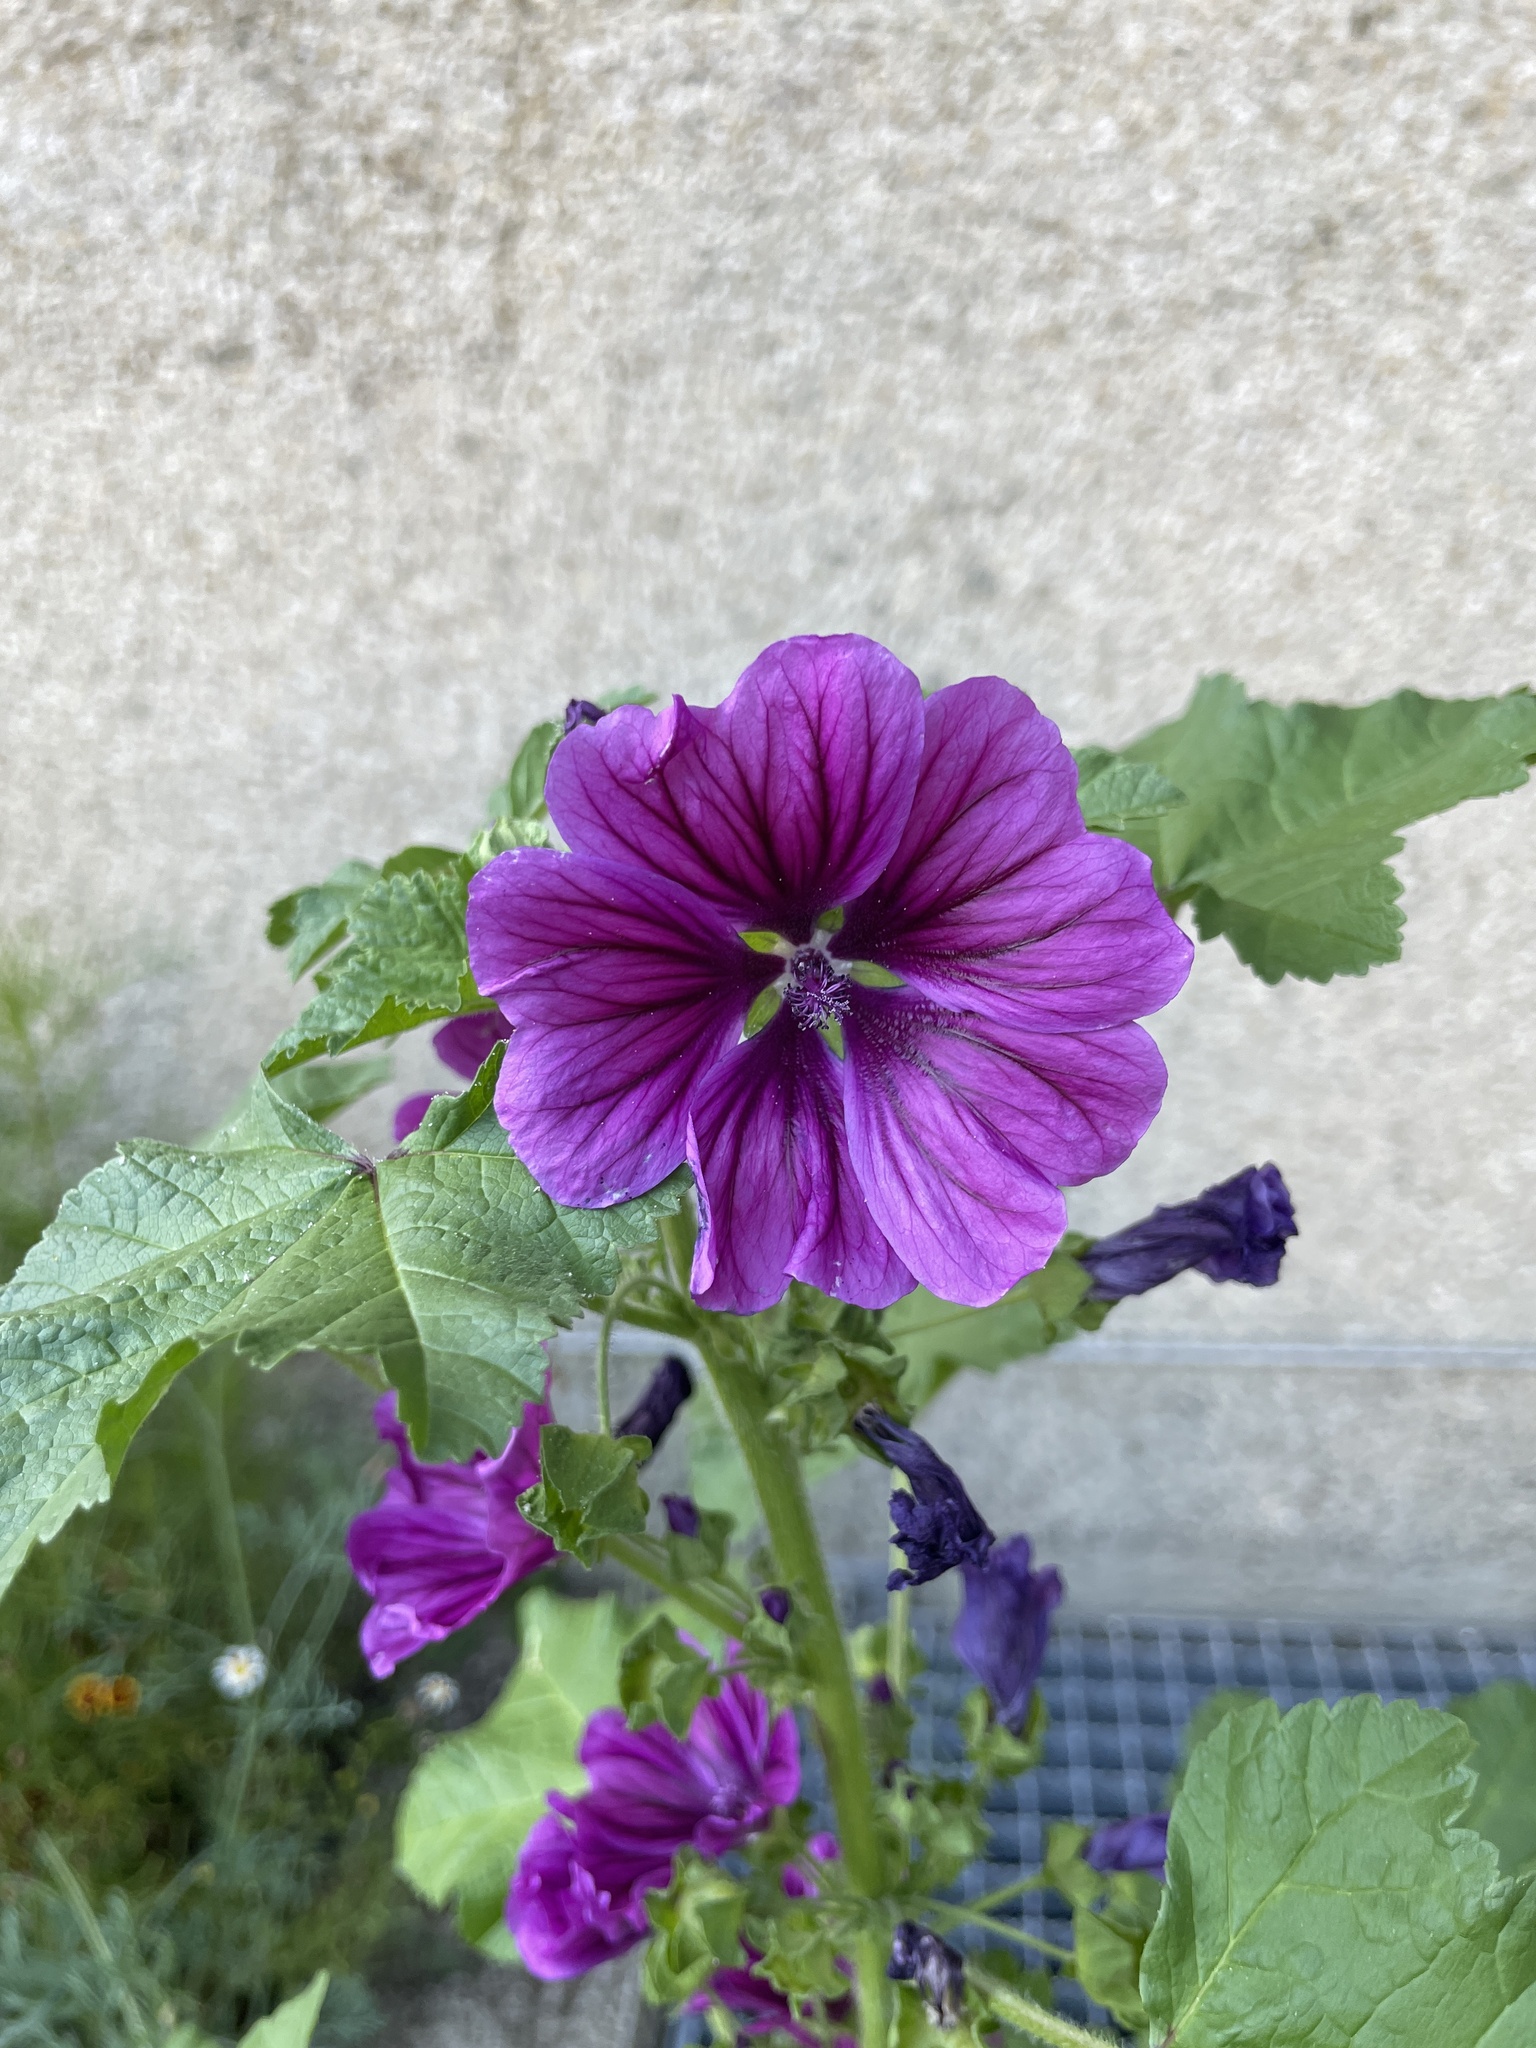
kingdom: Plantae
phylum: Tracheophyta
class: Magnoliopsida
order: Malvales
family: Malvaceae
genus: Malva
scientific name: Malva sylvestris
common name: Common mallow
